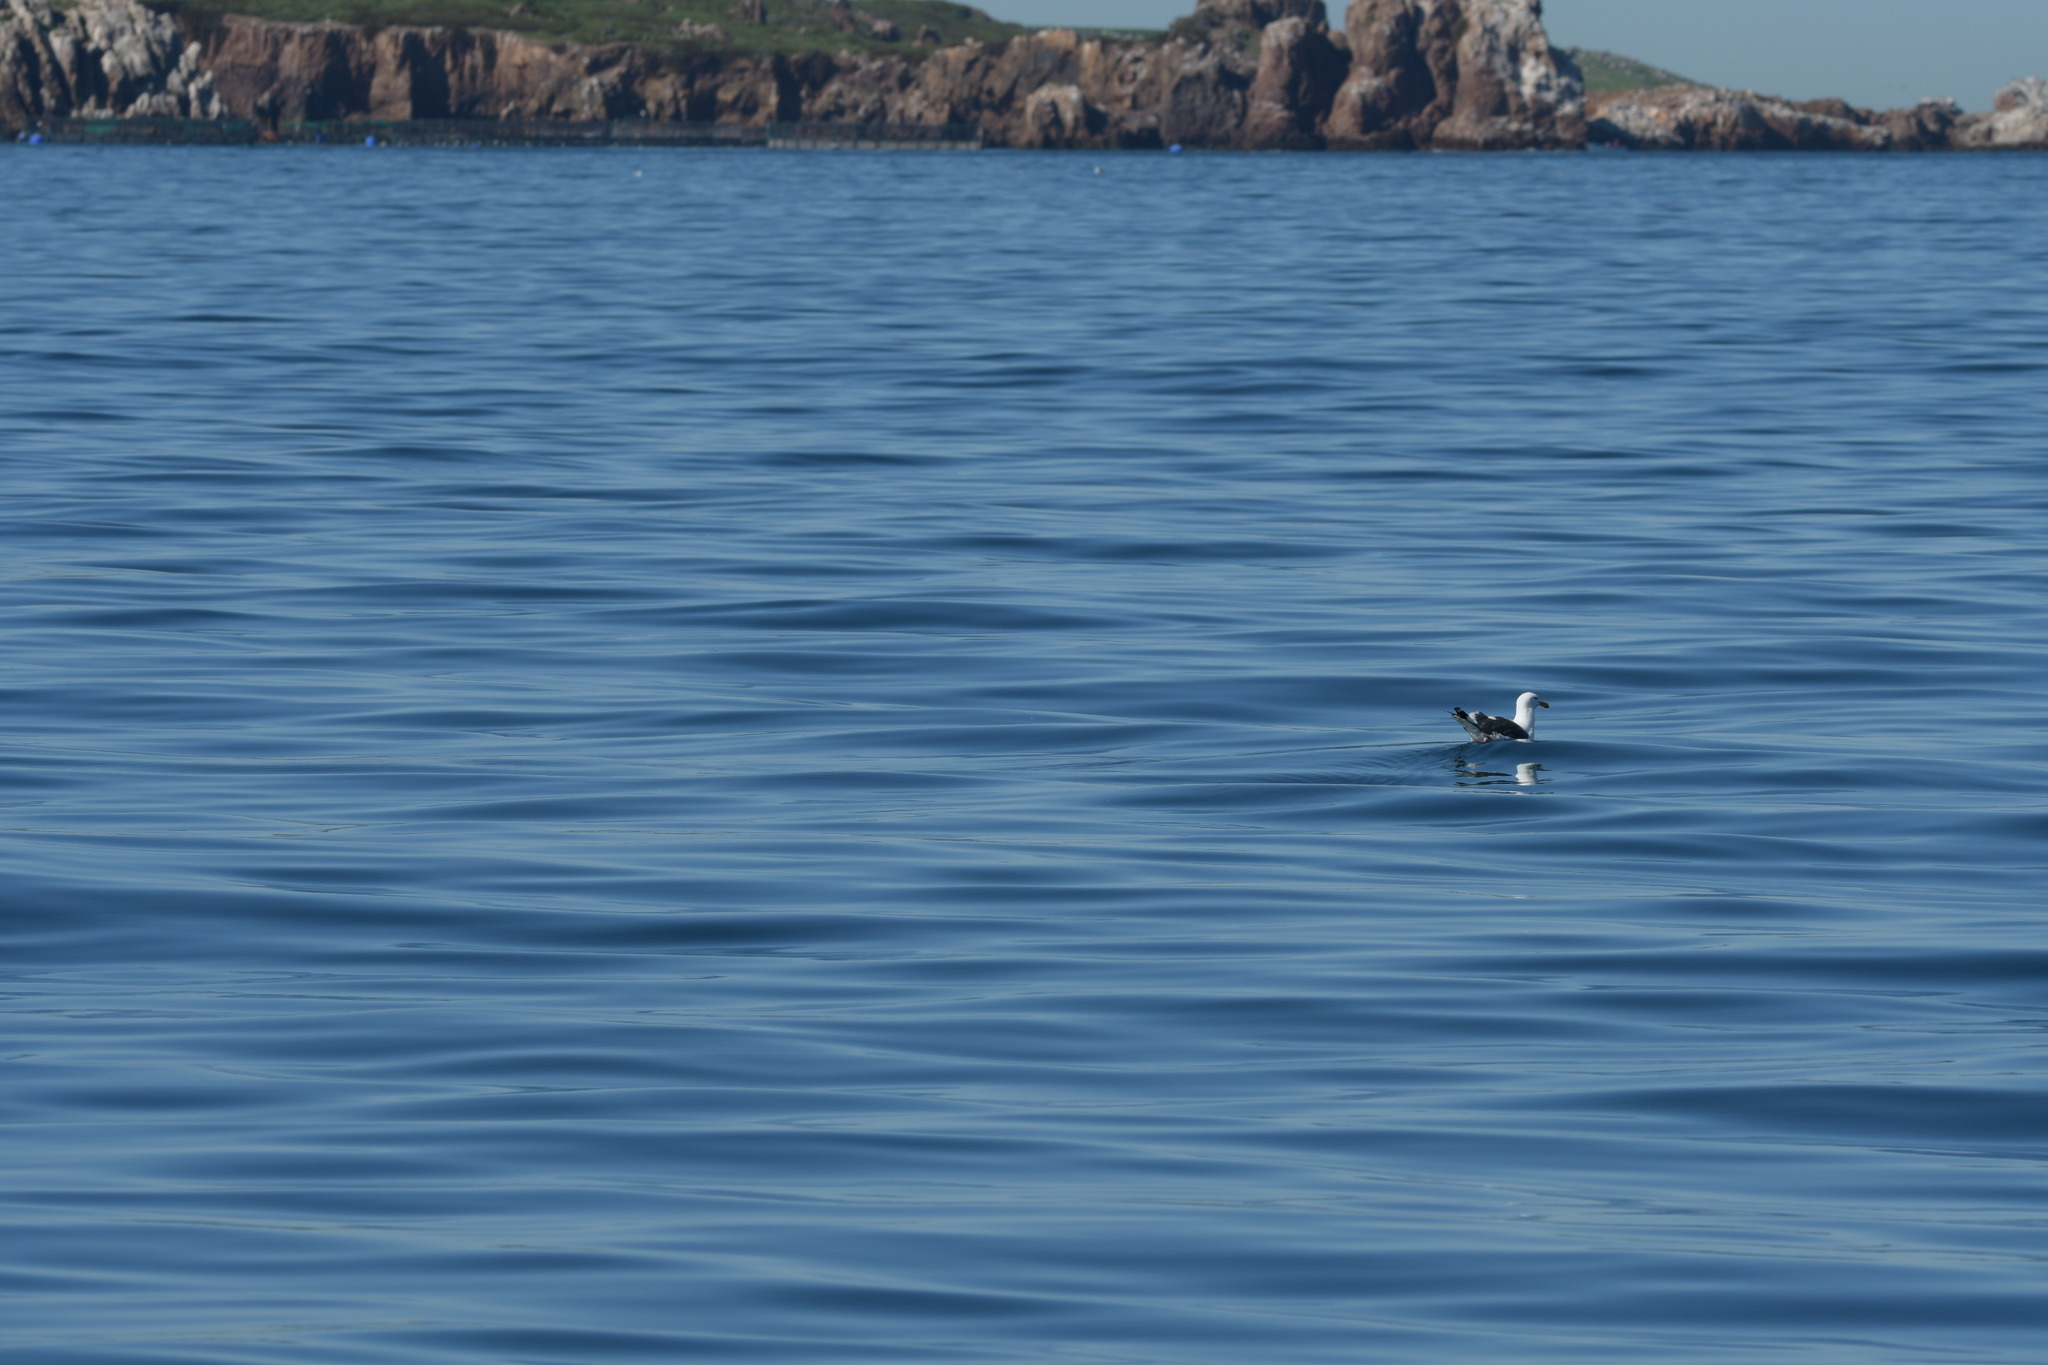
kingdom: Animalia
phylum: Chordata
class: Aves
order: Charadriiformes
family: Laridae
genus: Larus
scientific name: Larus occidentalis
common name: Western gull
